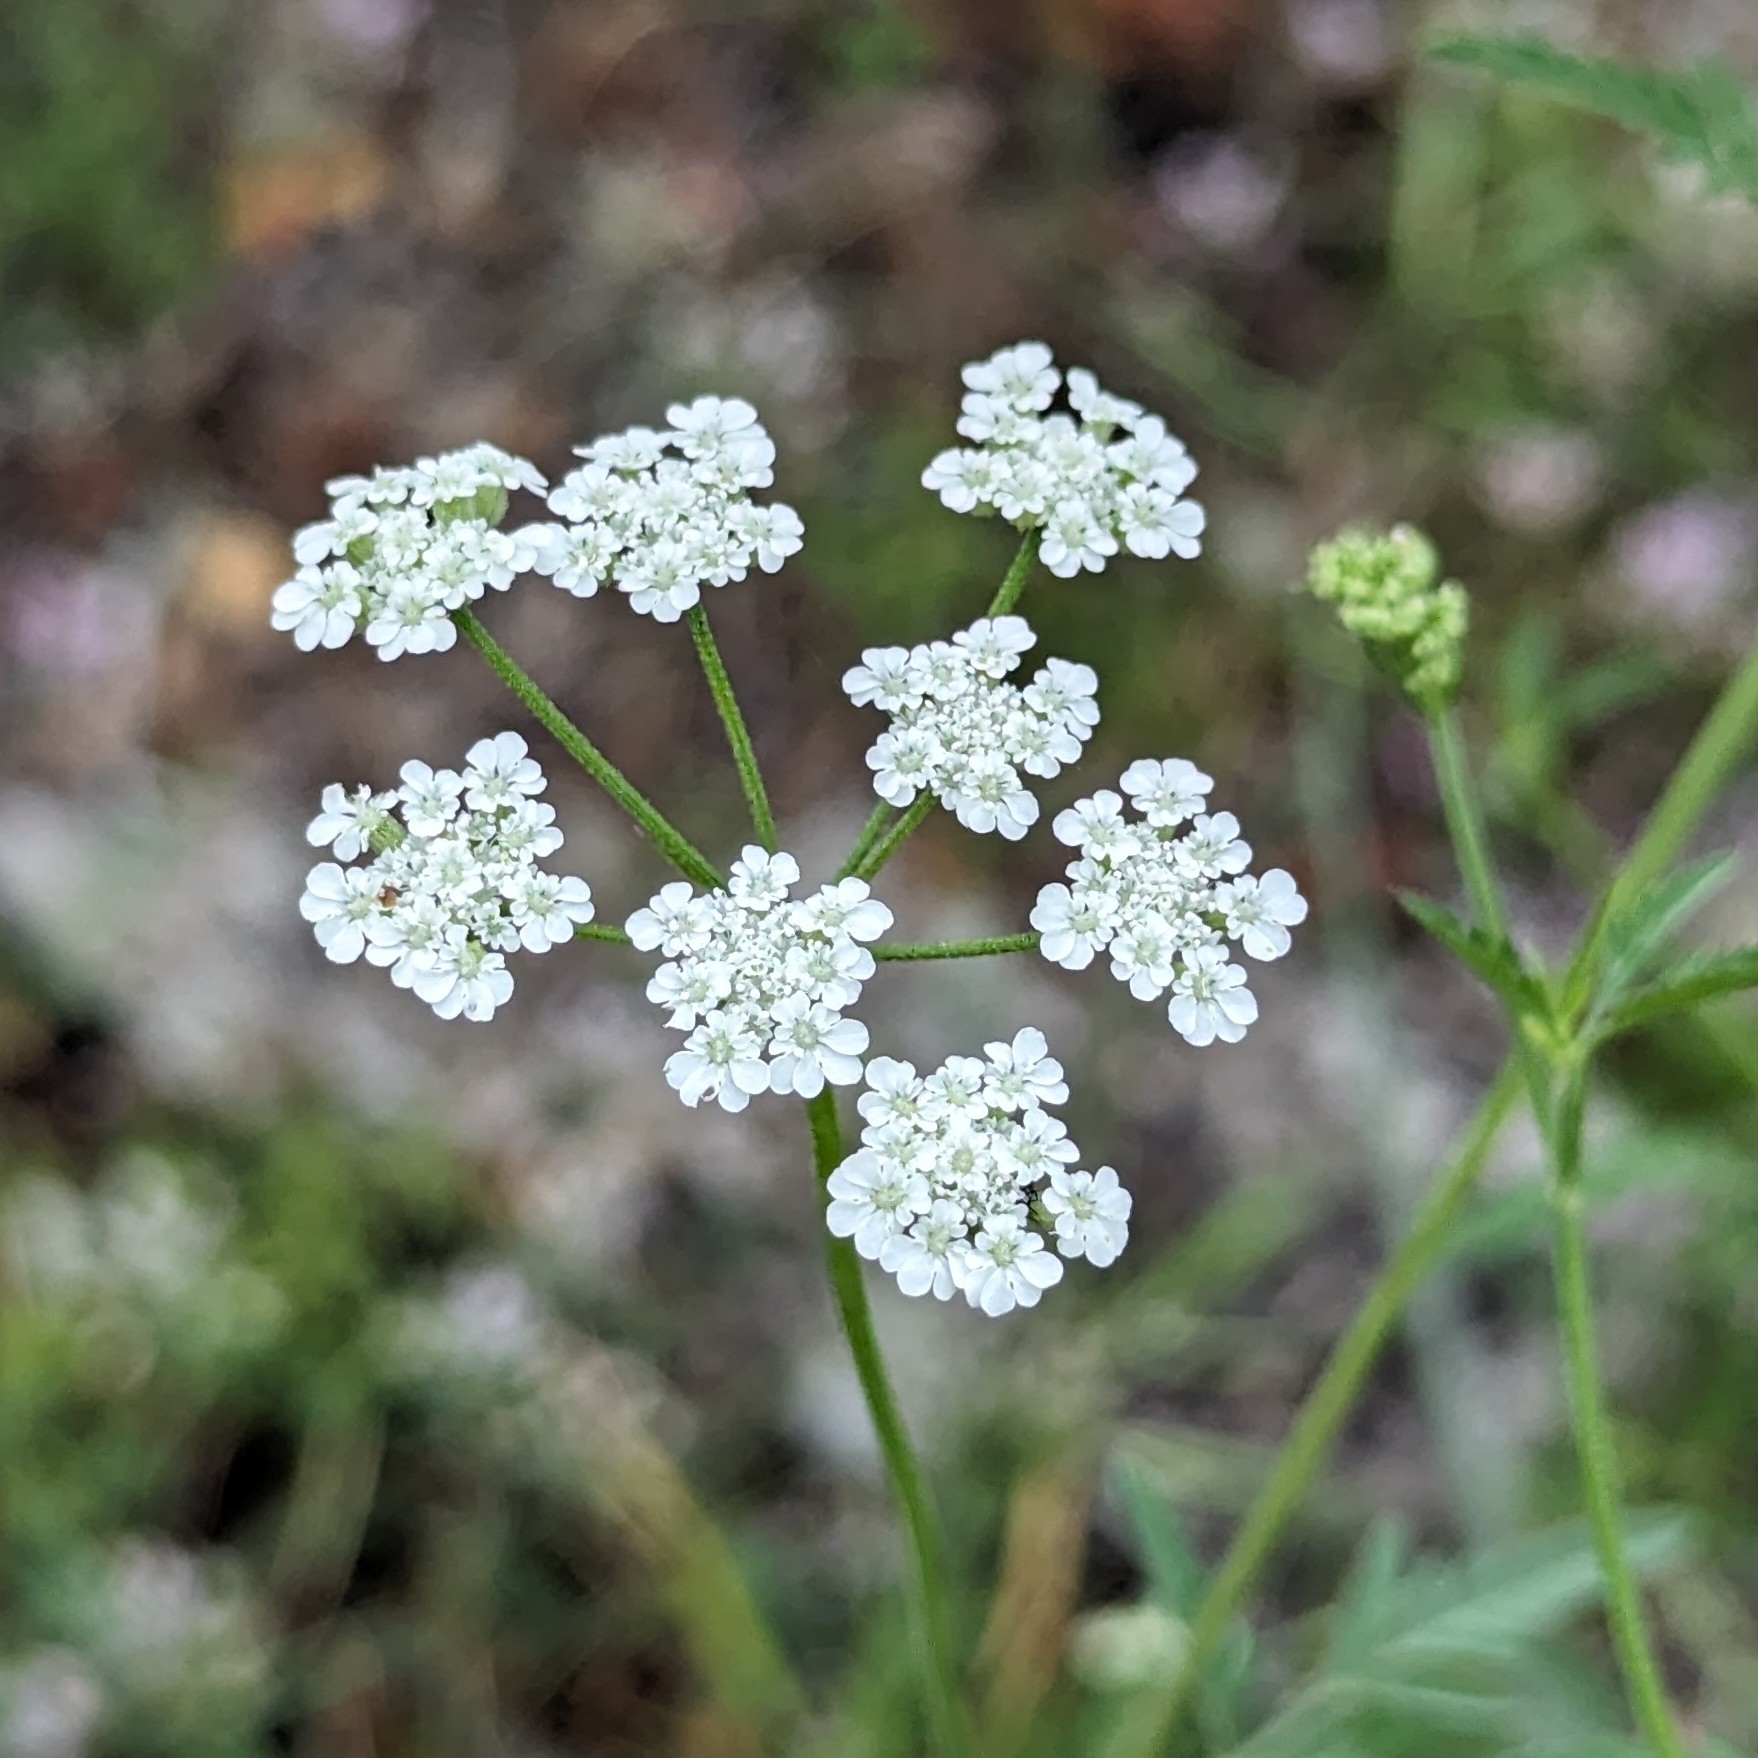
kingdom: Plantae
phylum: Tracheophyta
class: Magnoliopsida
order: Apiales
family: Apiaceae
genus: Torilis
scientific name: Torilis arvensis
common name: Spreading hedge-parsley
